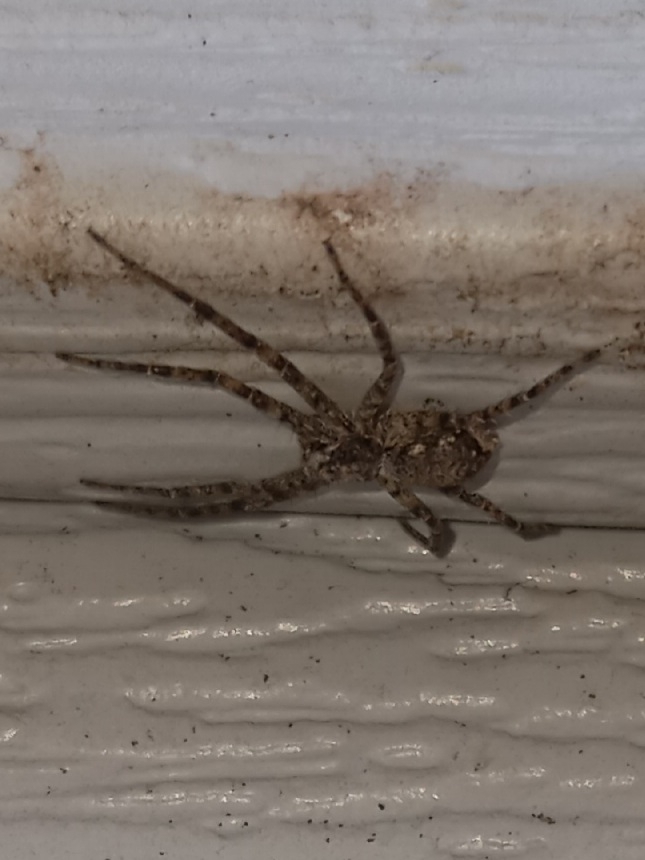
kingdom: Animalia
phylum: Arthropoda
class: Arachnida
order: Araneae
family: Philodromidae
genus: Philodromus
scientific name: Philodromus
